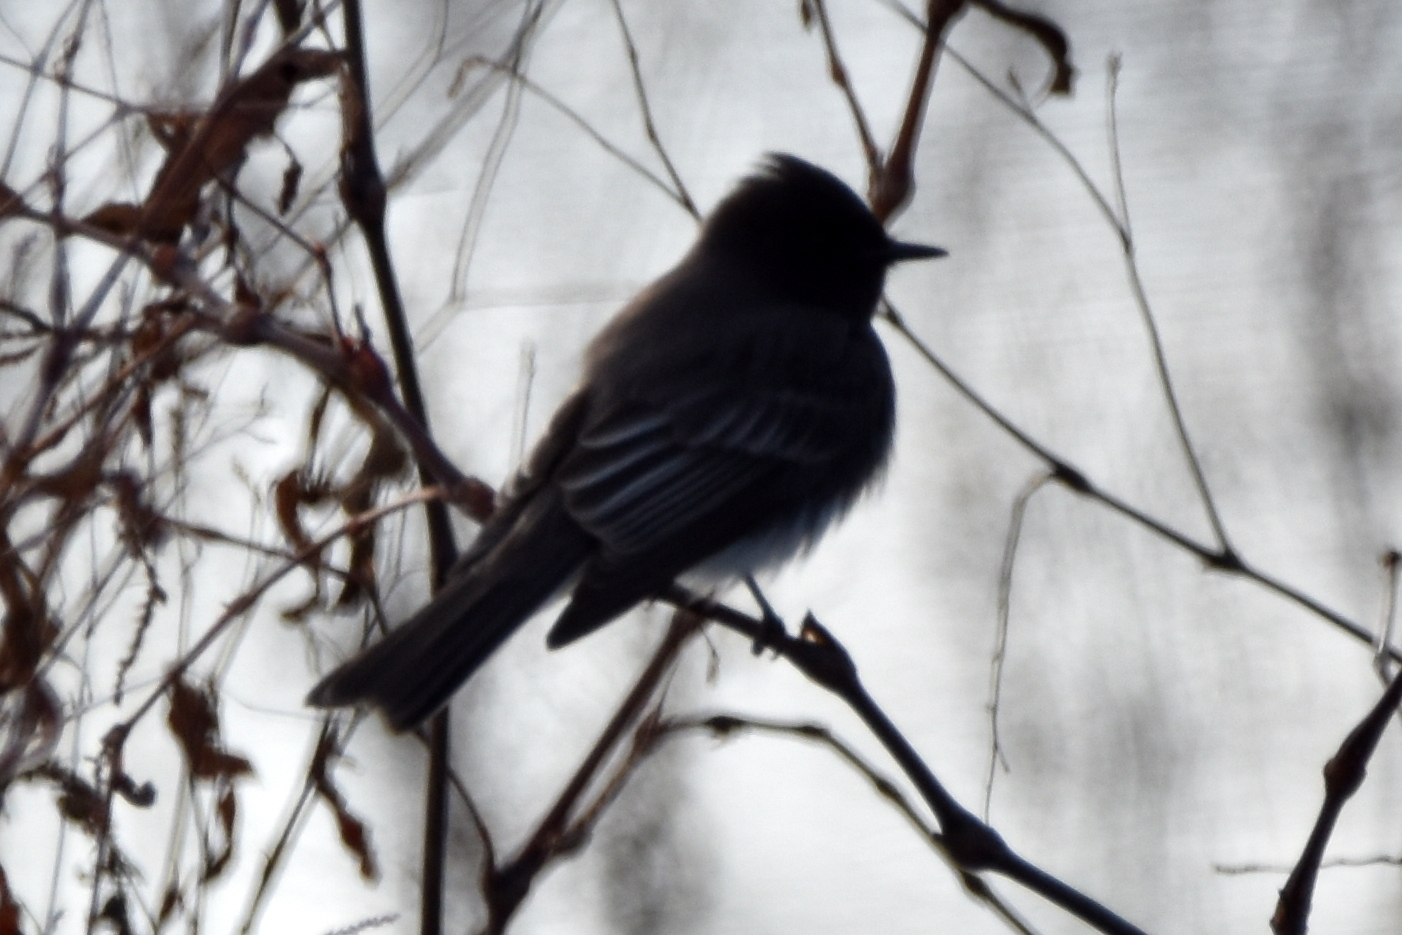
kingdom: Animalia
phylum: Chordata
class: Aves
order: Passeriformes
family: Tyrannidae
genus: Sayornis
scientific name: Sayornis nigricans
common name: Black phoebe
